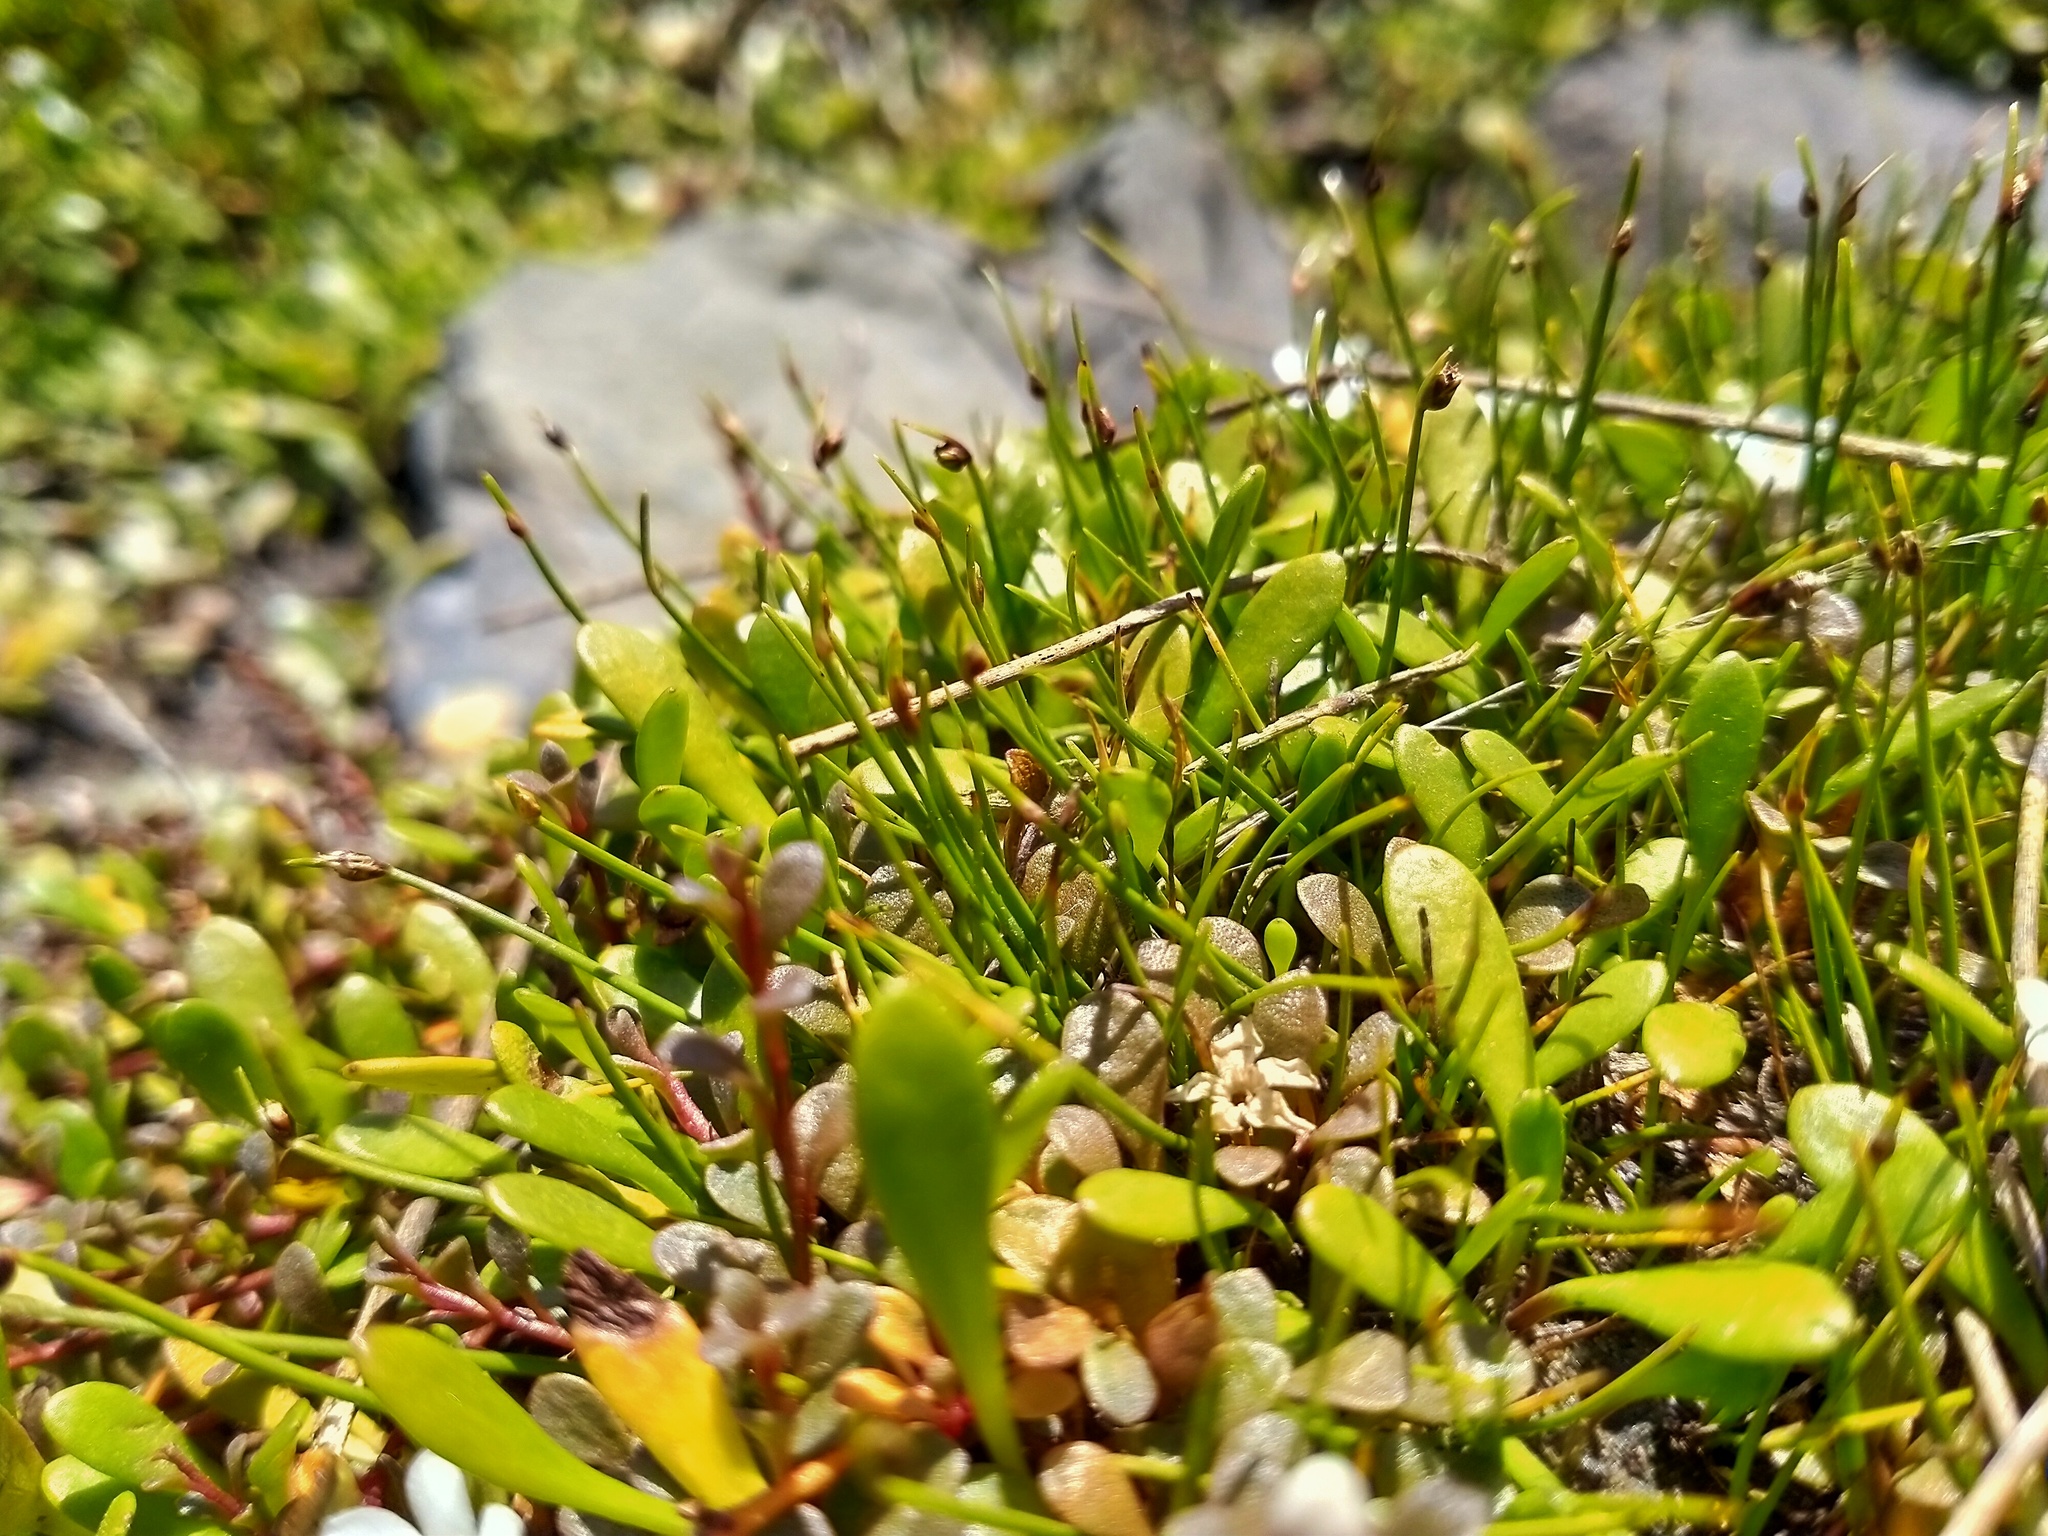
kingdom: Plantae
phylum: Tracheophyta
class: Magnoliopsida
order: Ericales
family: Primulaceae
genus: Samolus
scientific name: Samolus repens
